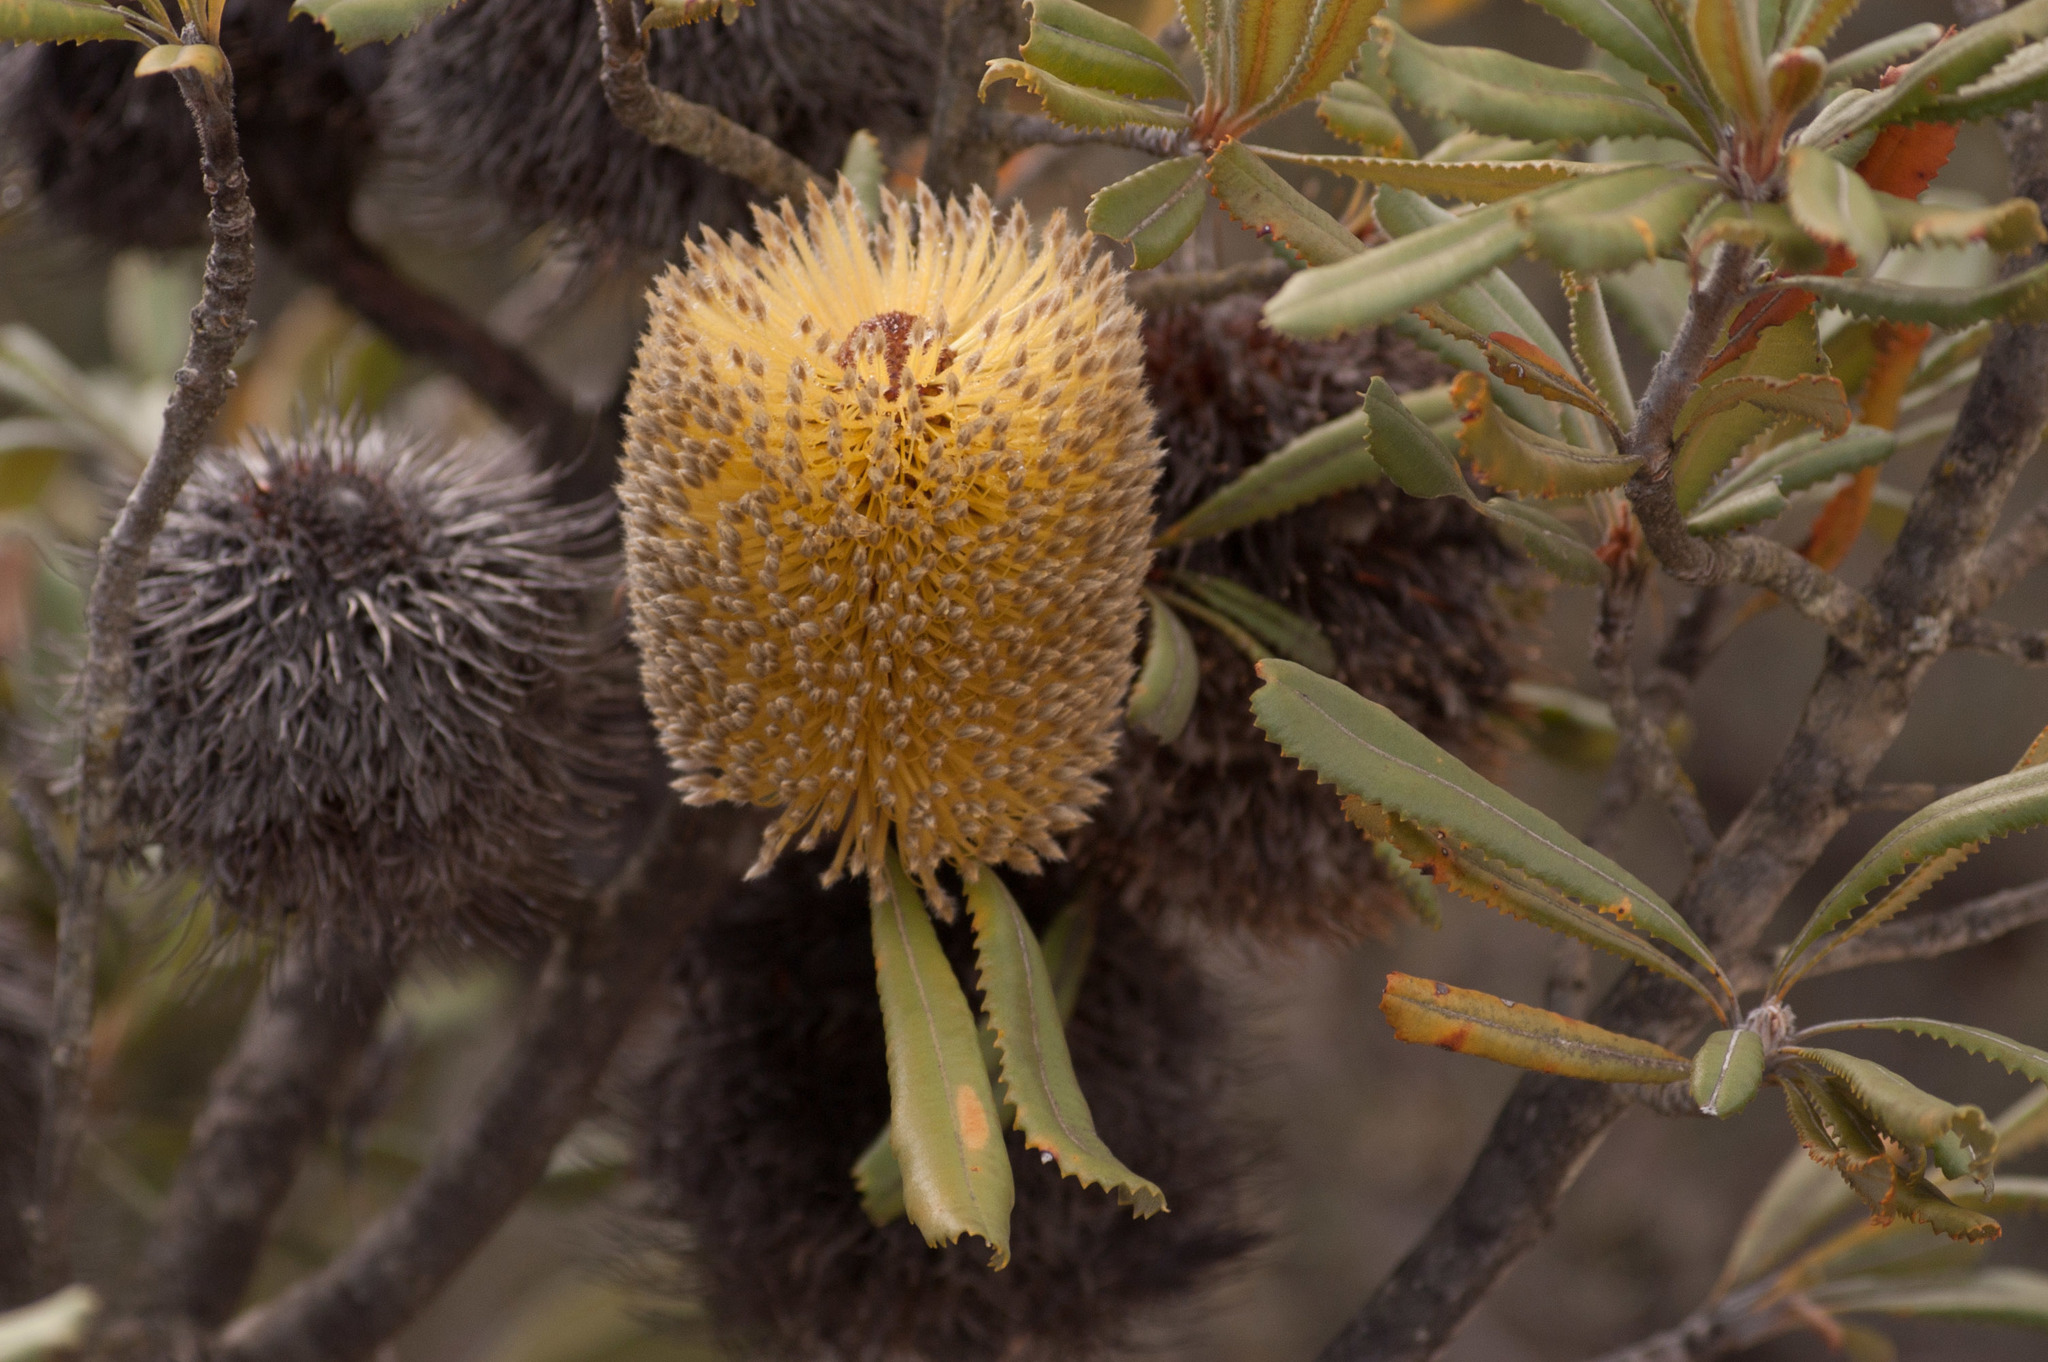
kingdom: Plantae
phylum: Tracheophyta
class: Magnoliopsida
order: Proteales
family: Proteaceae
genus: Banksia
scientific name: Banksia ornata
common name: Desert banksia
